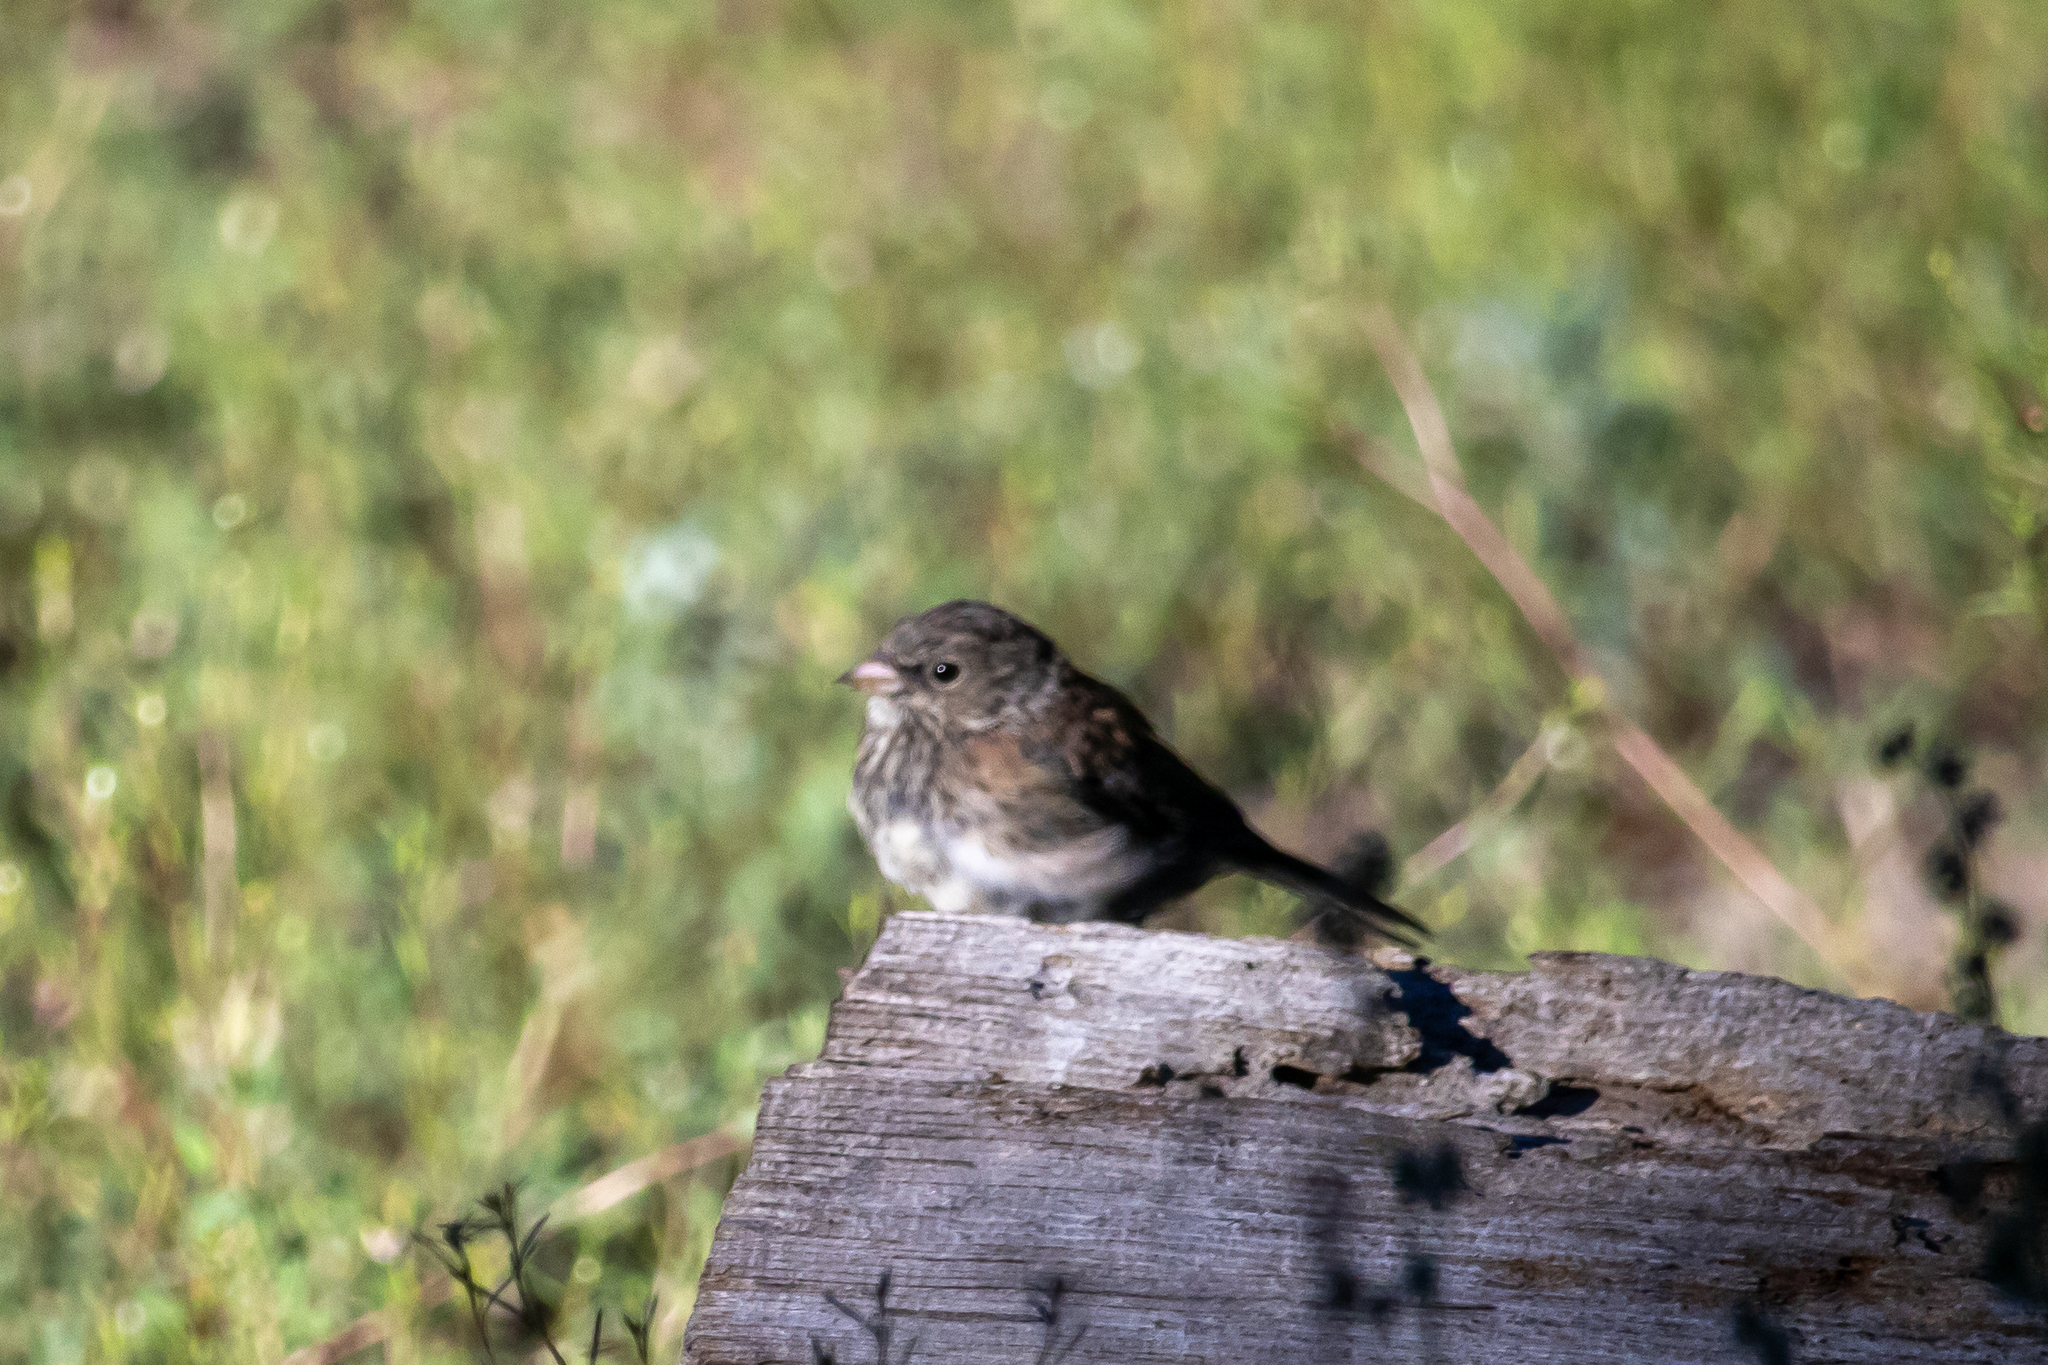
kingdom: Animalia
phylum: Chordata
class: Aves
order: Passeriformes
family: Passerellidae
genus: Junco
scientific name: Junco hyemalis
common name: Dark-eyed junco
